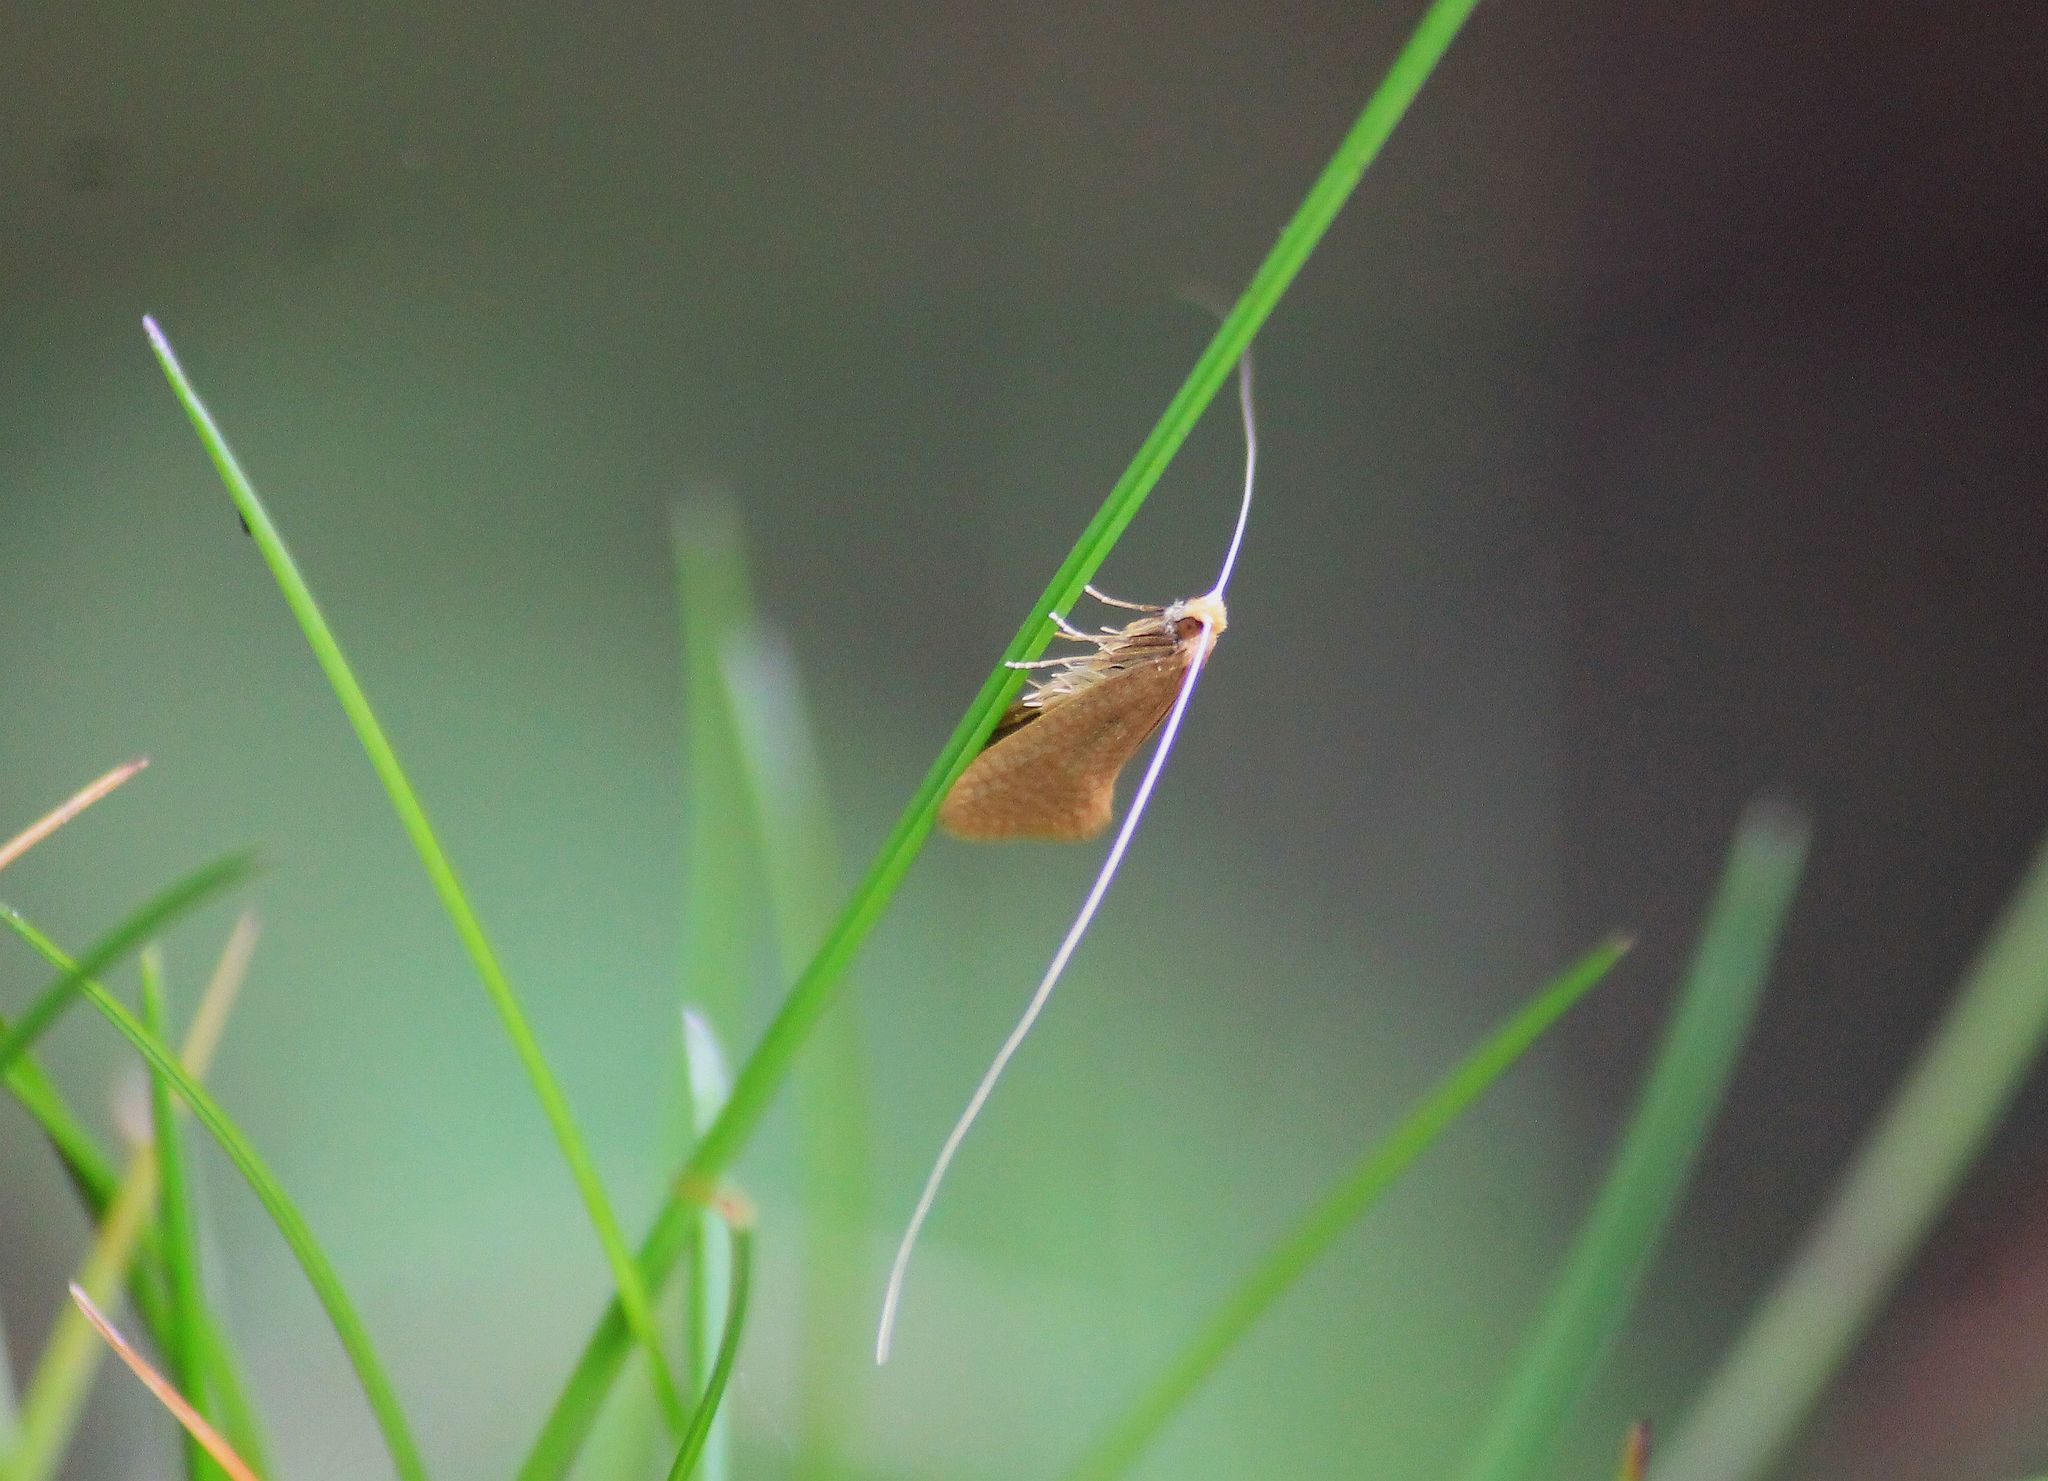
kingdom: Animalia
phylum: Arthropoda
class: Insecta
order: Lepidoptera
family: Adelidae
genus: Nematopogon
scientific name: Nematopogon swammerdamella
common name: Large long-horn
